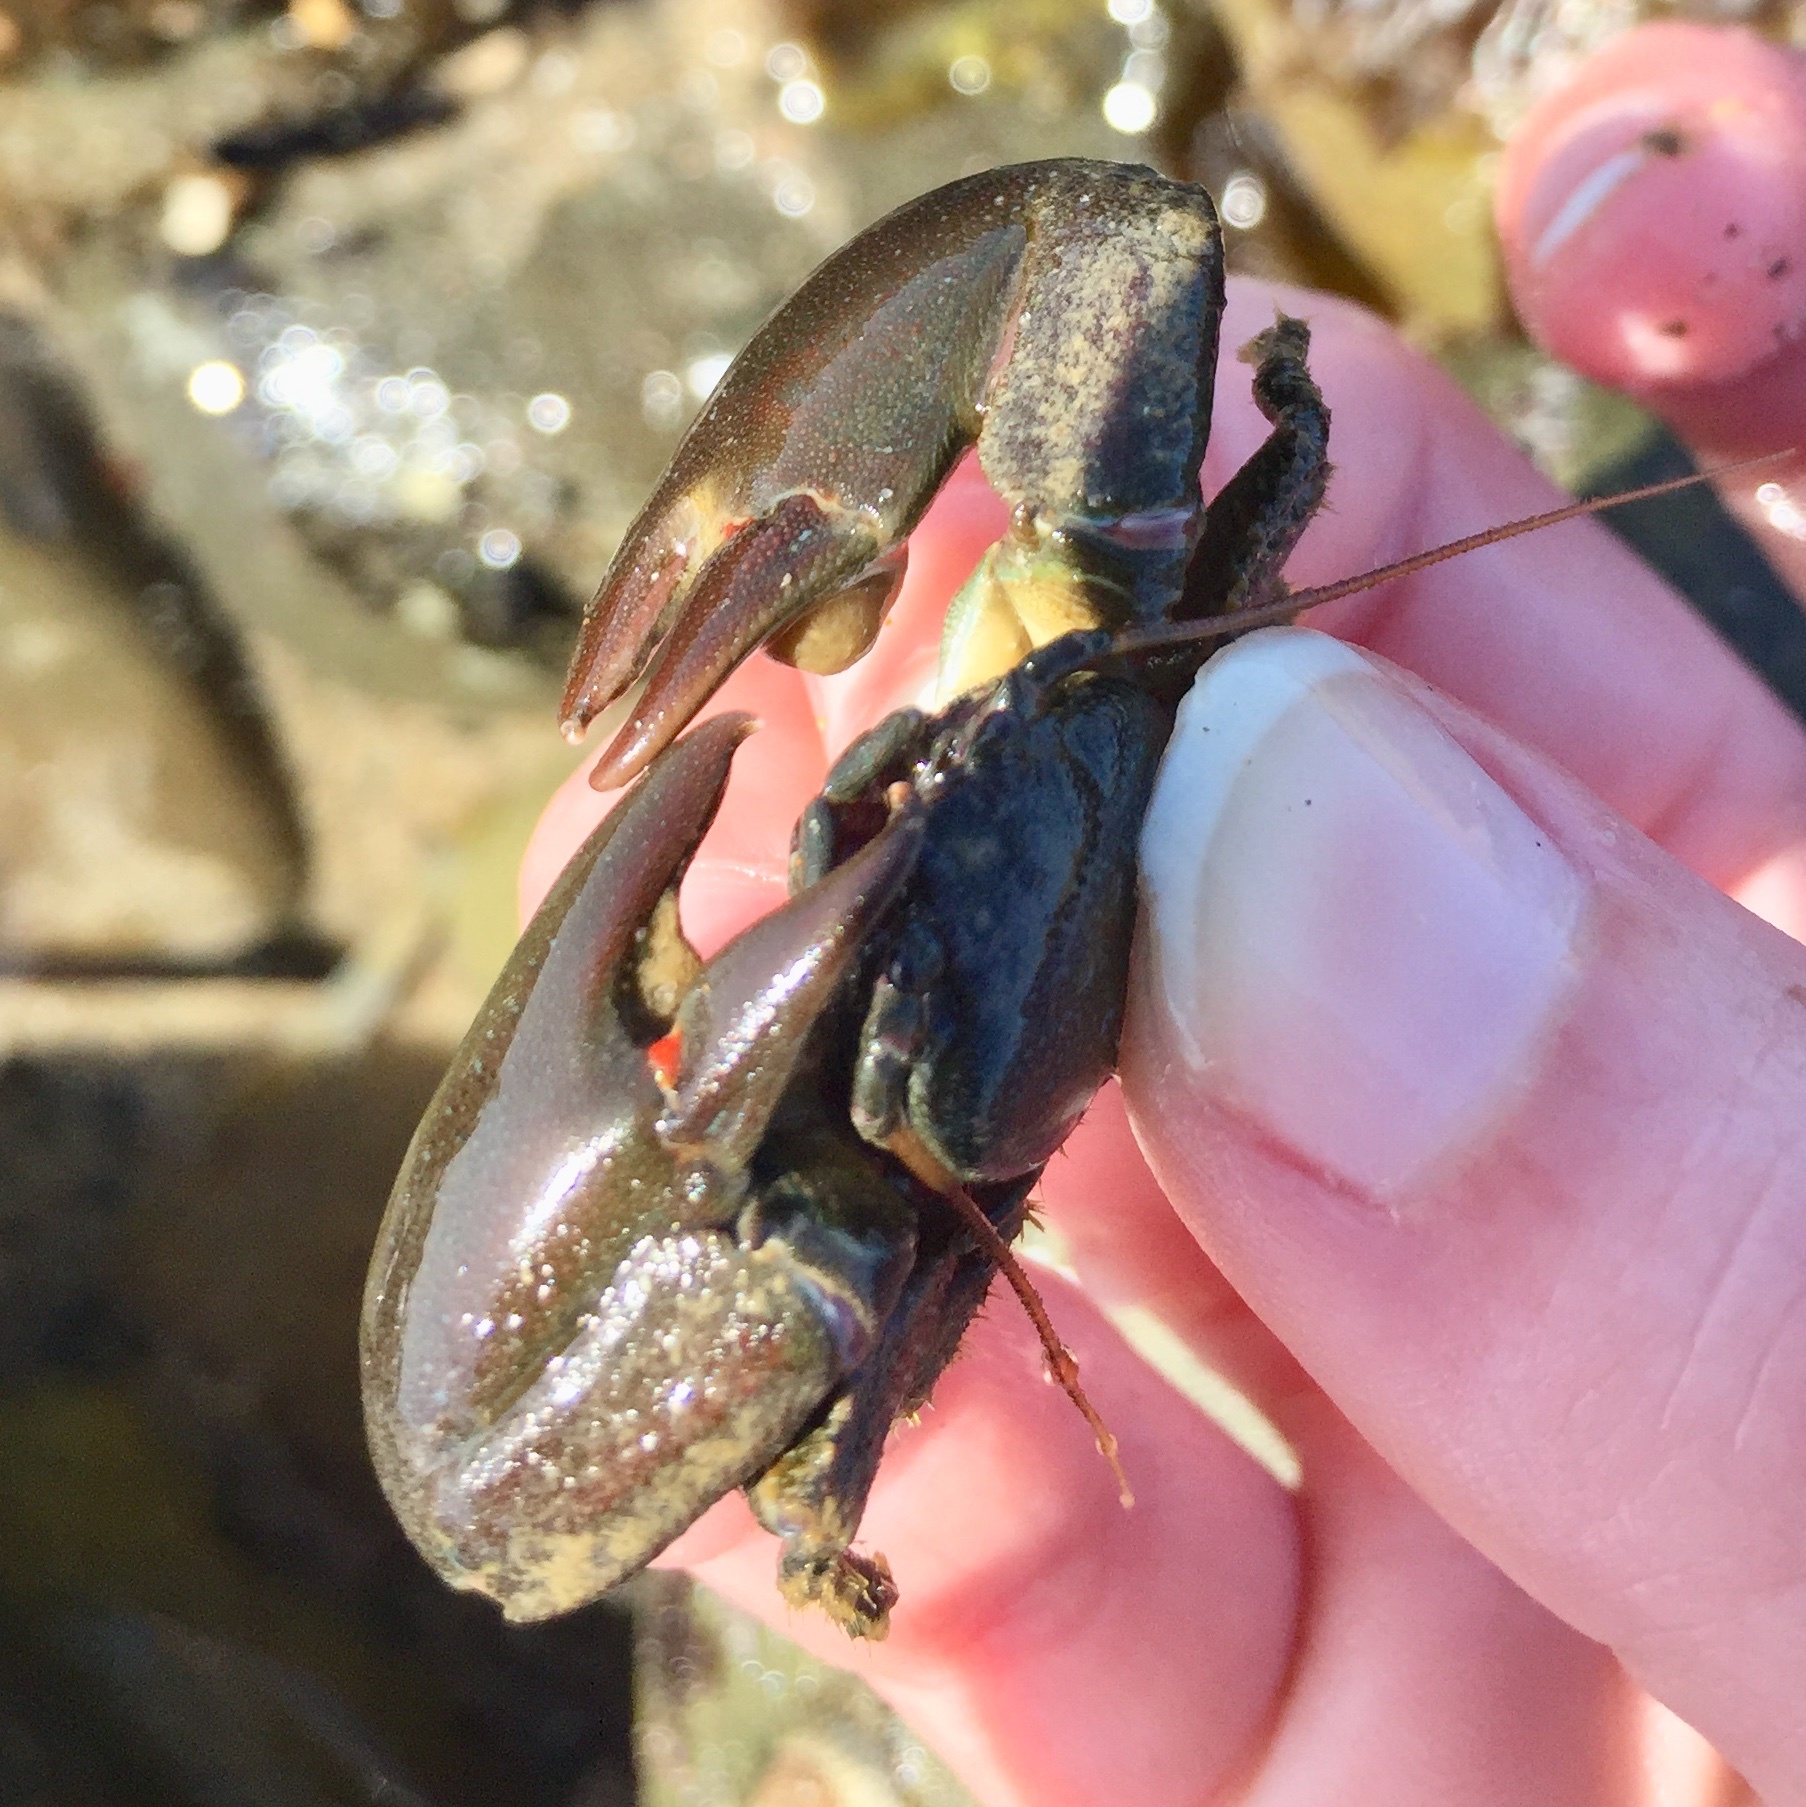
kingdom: Animalia
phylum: Arthropoda
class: Malacostraca
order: Decapoda
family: Porcellanidae
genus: Petrolisthes
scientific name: Petrolisthes cabrilloi
